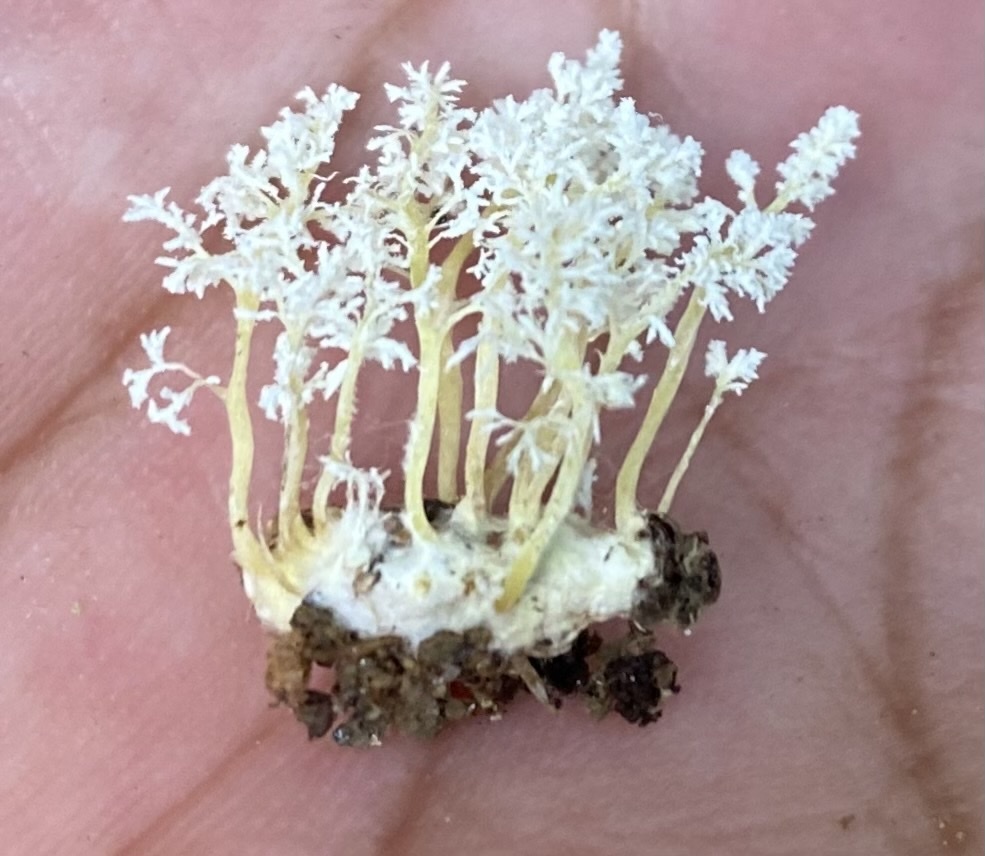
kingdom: Fungi
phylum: Ascomycota
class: Sordariomycetes
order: Hypocreales
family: Cordycipitaceae
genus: Cordyceps
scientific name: Cordyceps tenuipes
